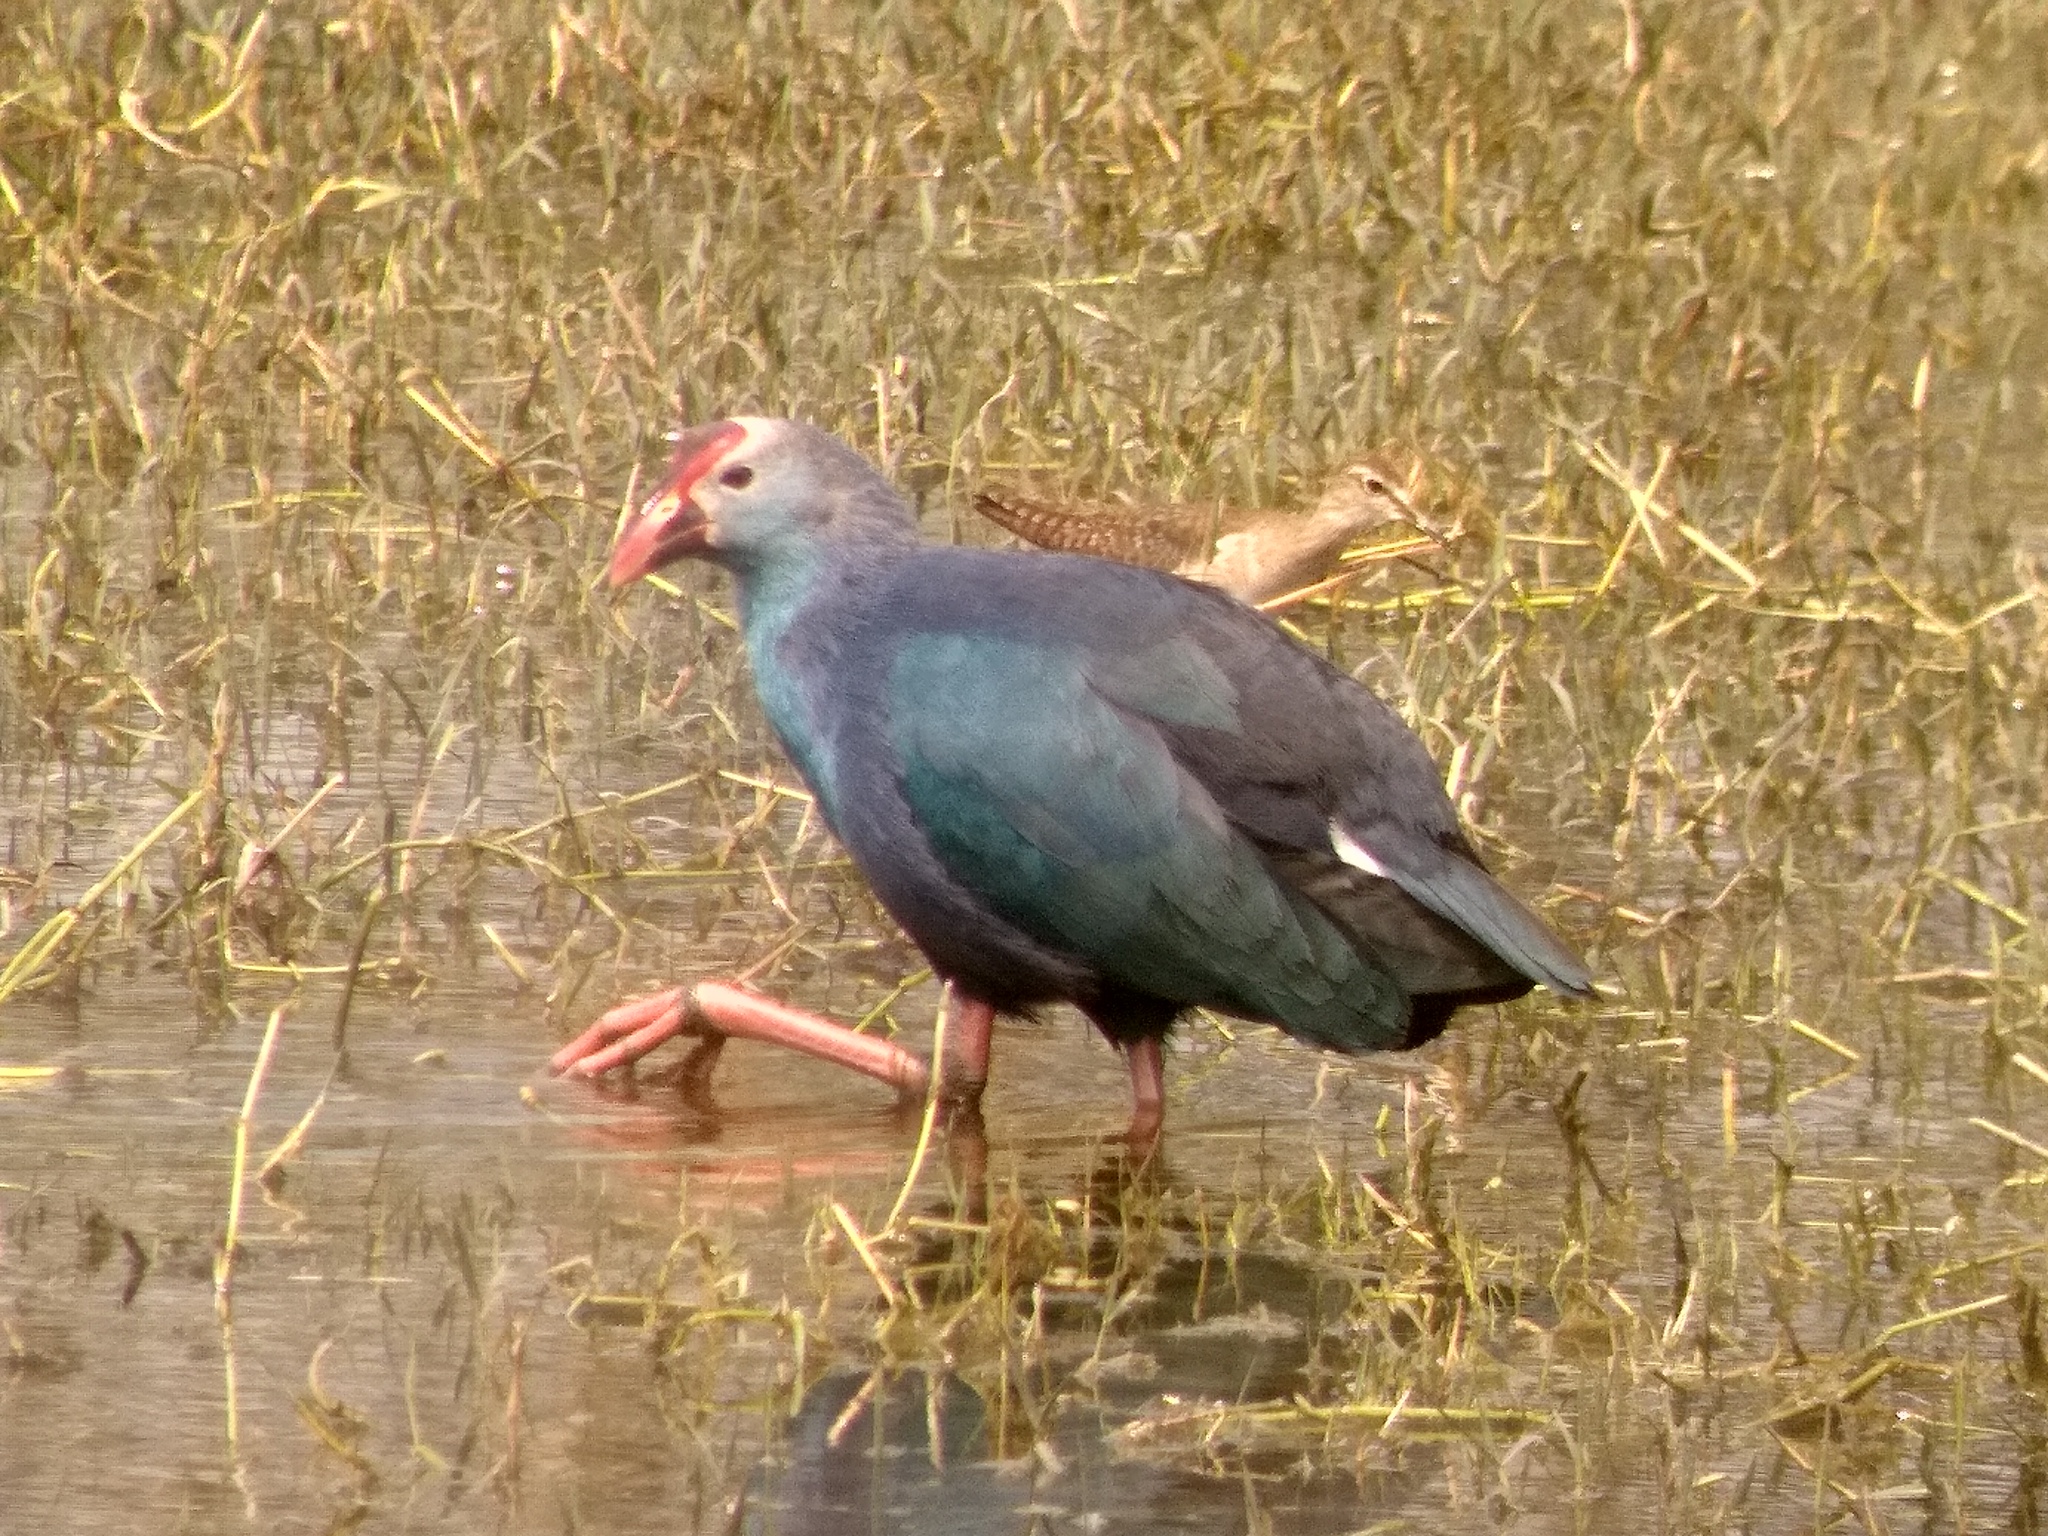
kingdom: Animalia
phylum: Chordata
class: Aves
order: Gruiformes
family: Rallidae
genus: Porphyrio
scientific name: Porphyrio porphyrio
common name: Purple swamphen
